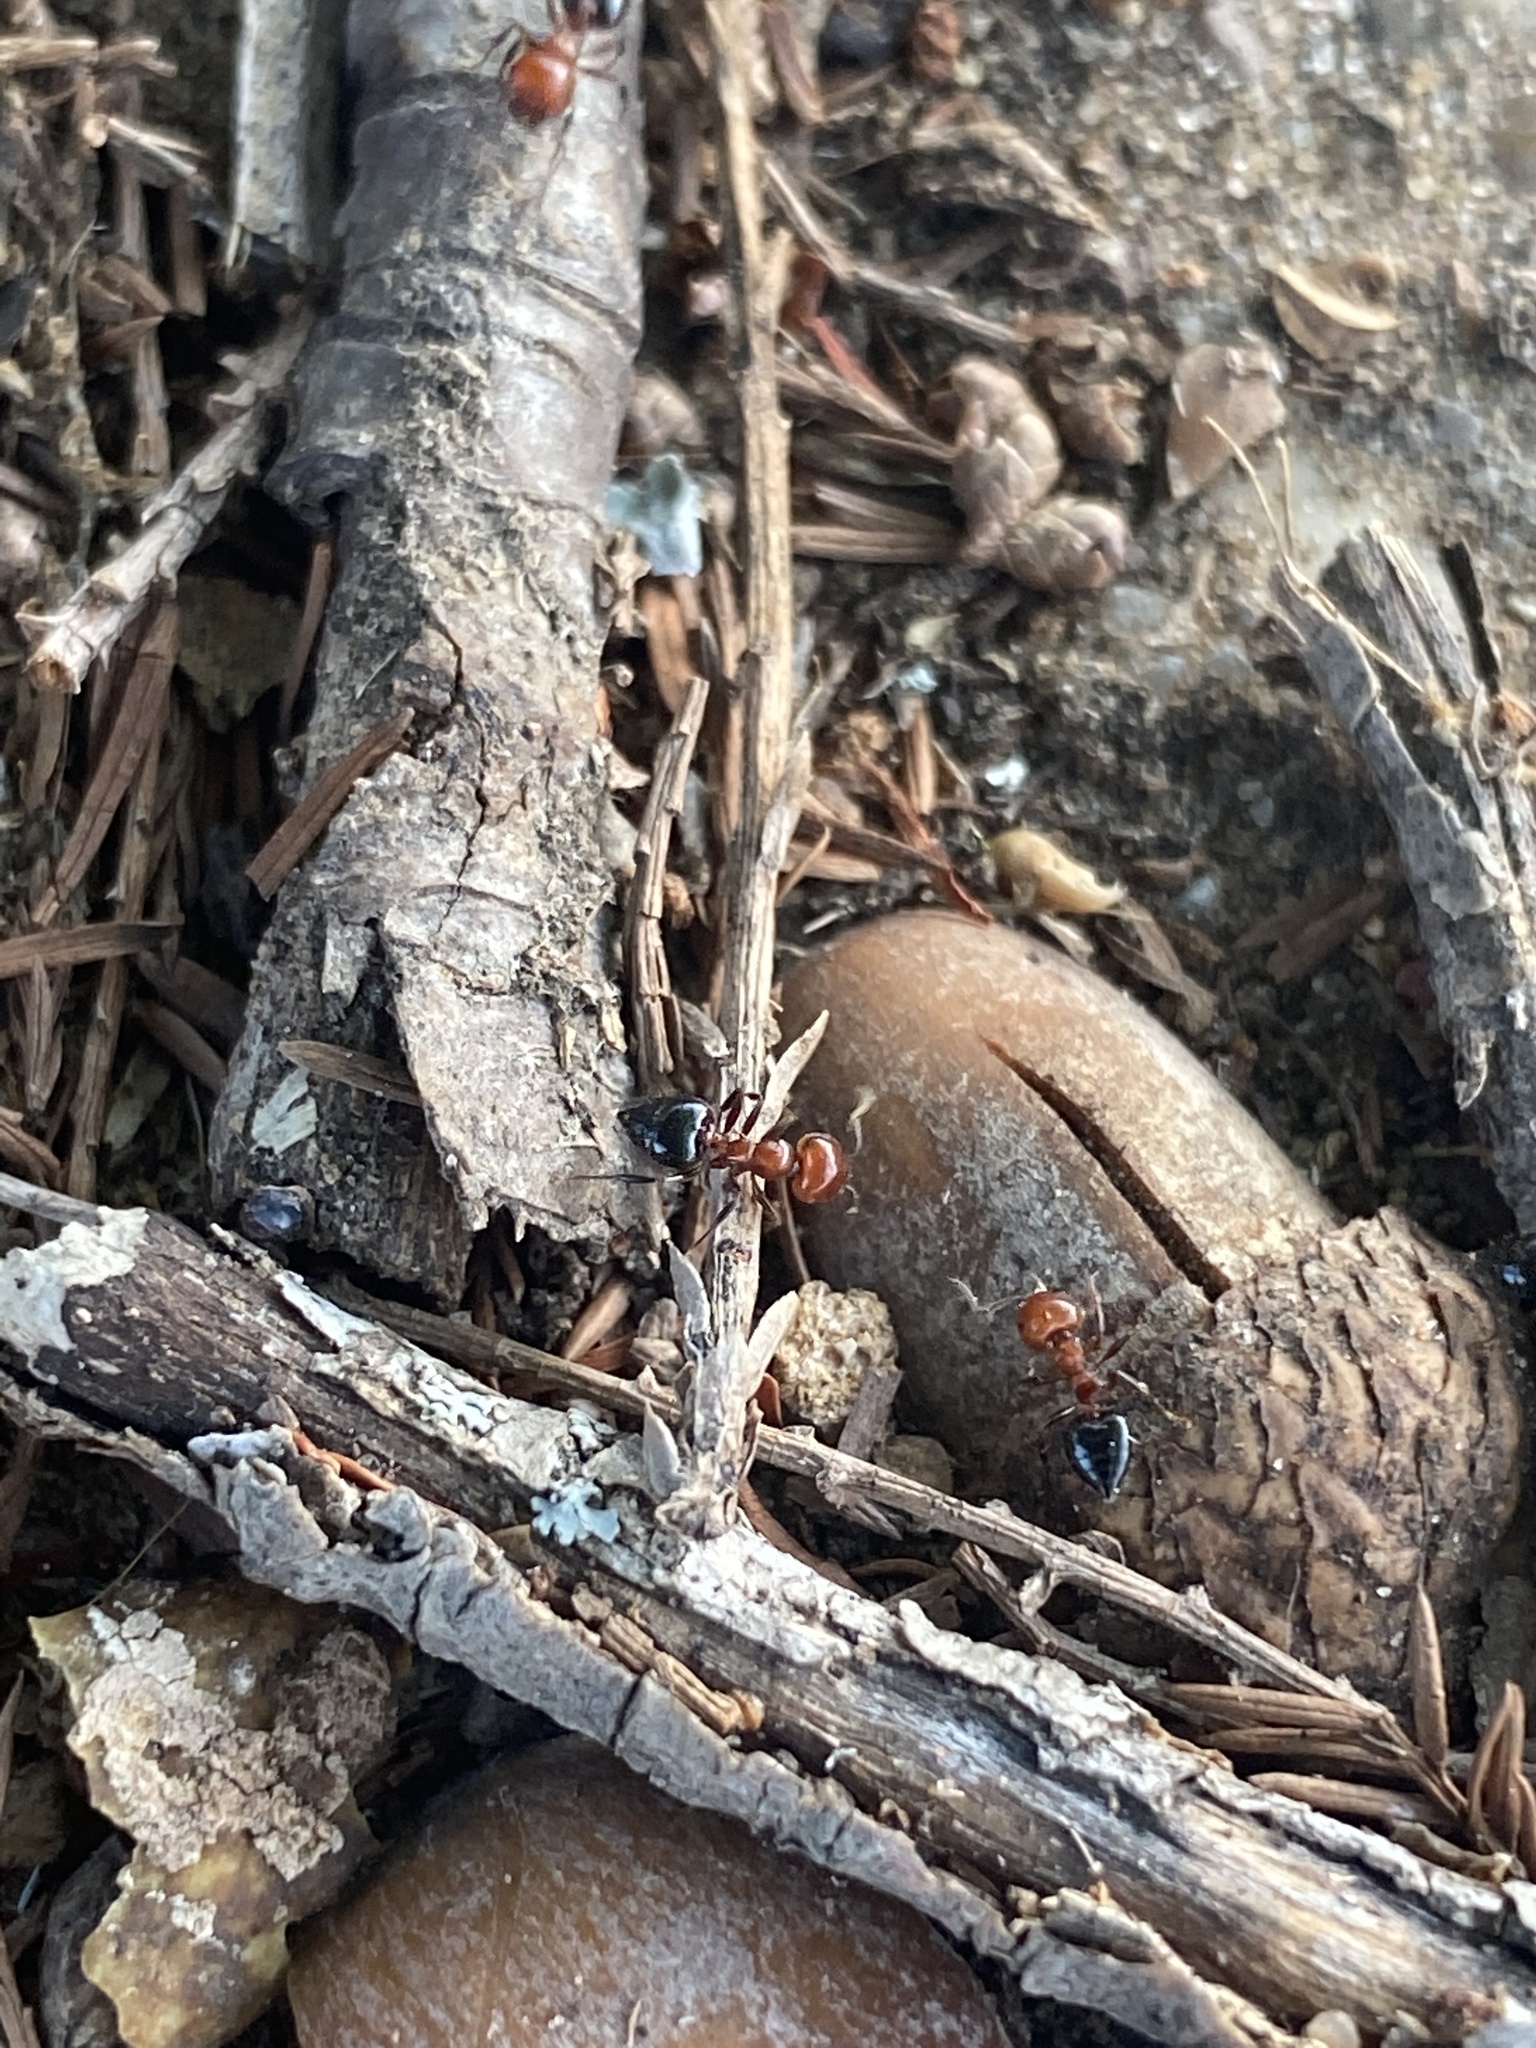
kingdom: Animalia
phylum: Arthropoda
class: Insecta
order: Hymenoptera
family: Formicidae
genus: Crematogaster
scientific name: Crematogaster laeviuscula
